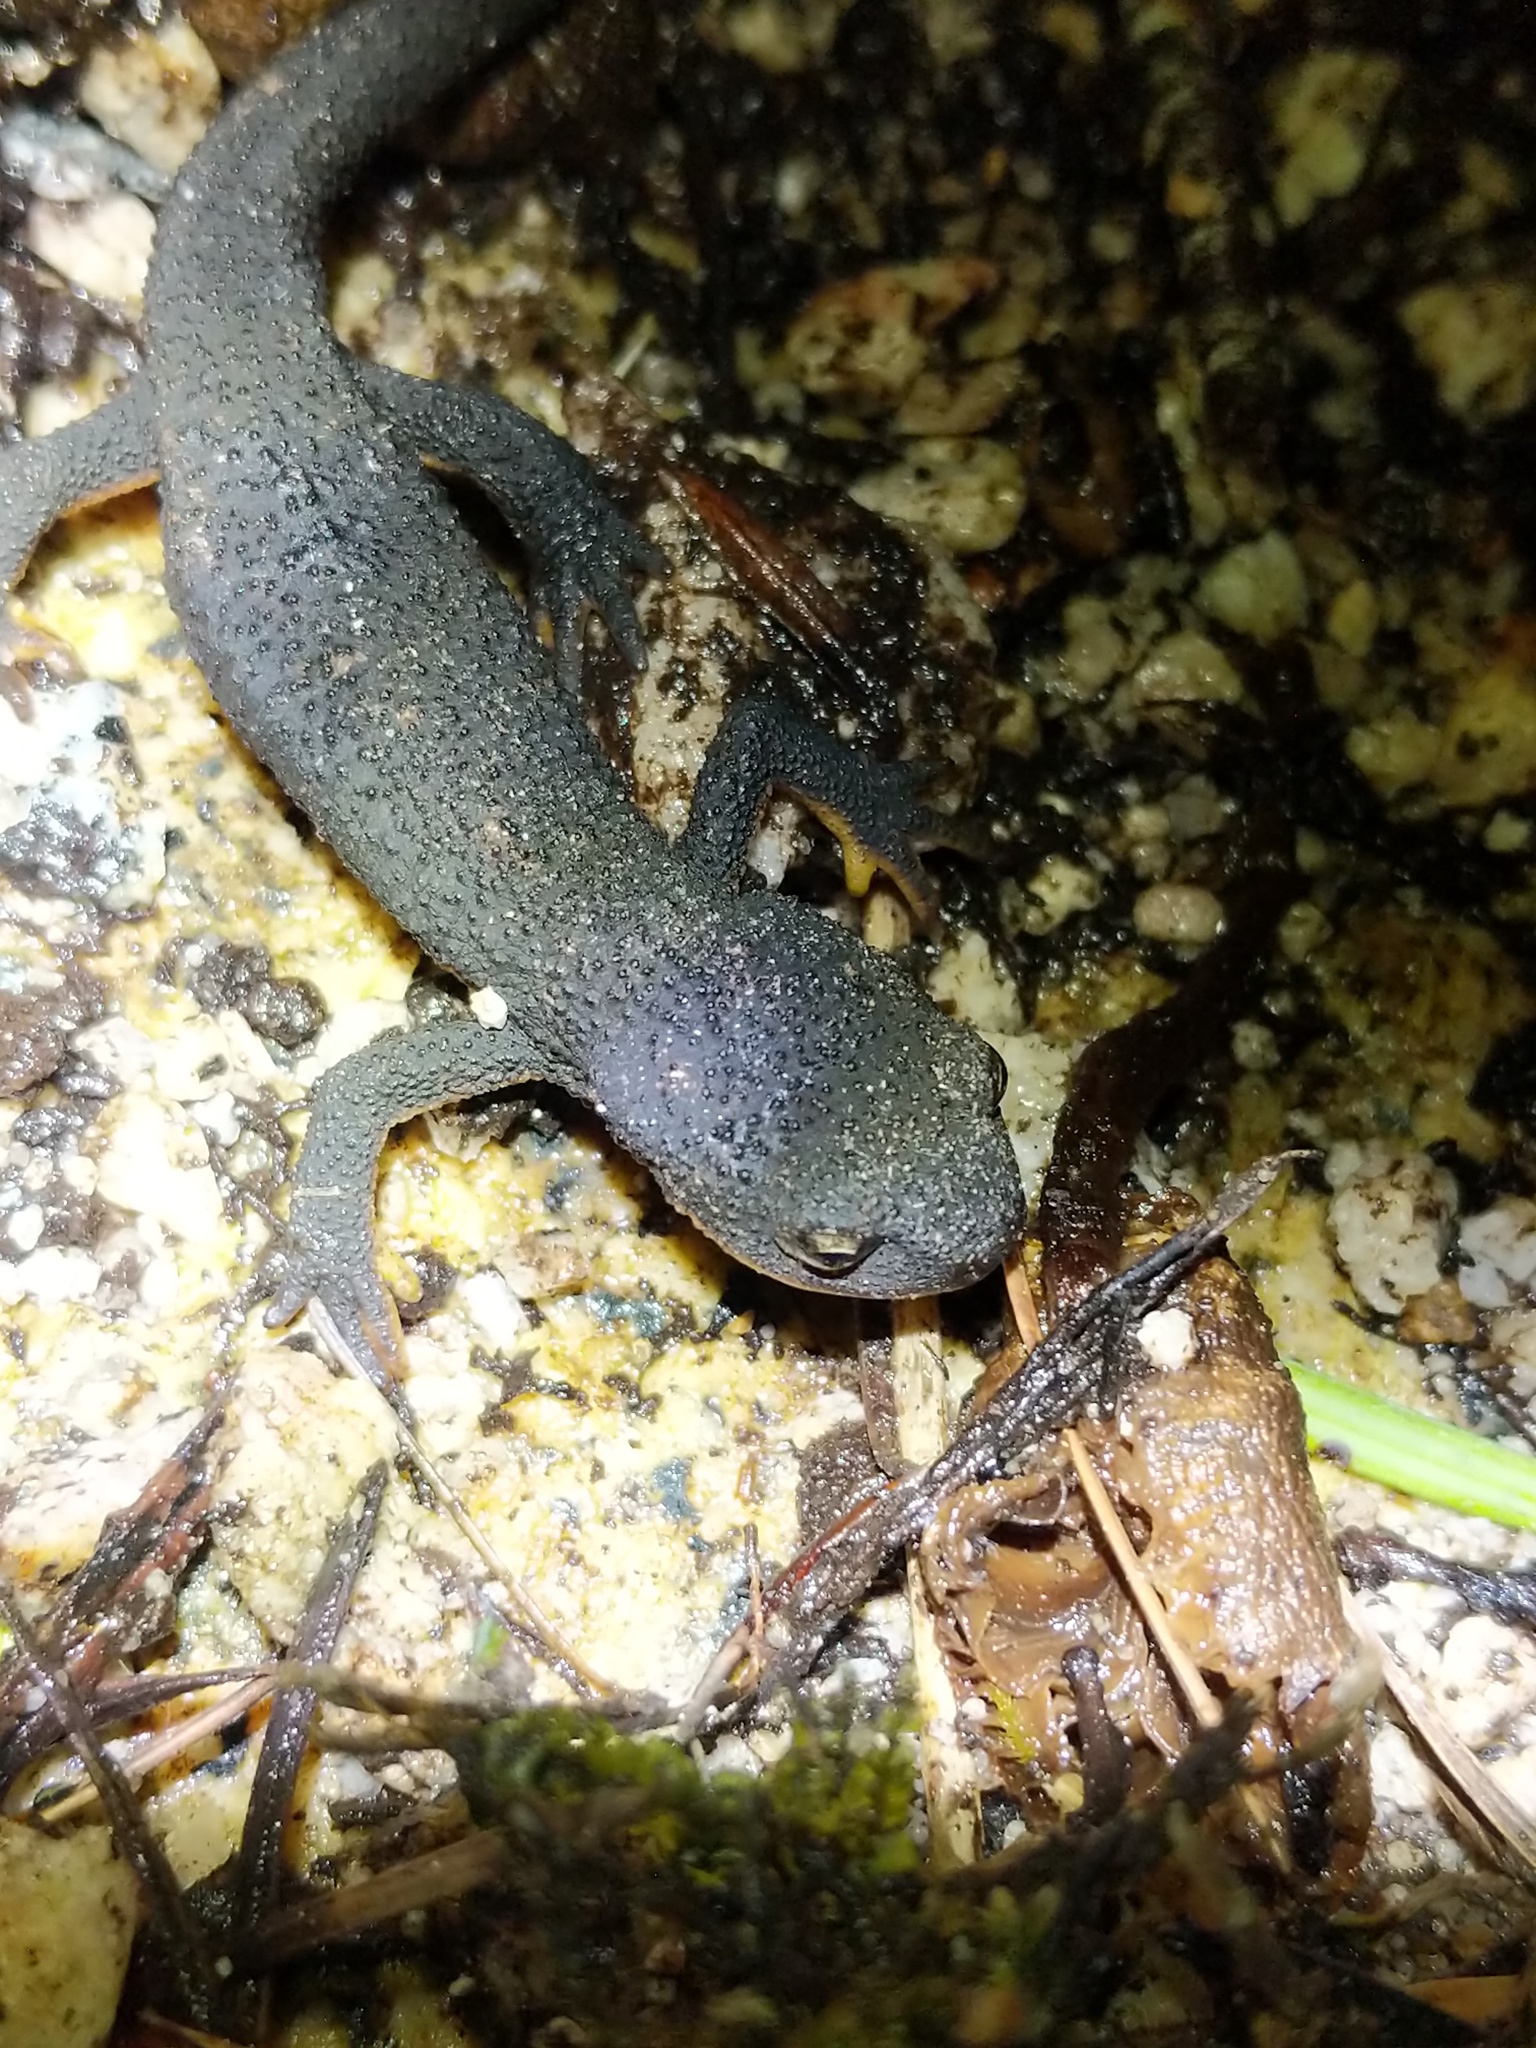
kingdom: Animalia
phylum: Chordata
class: Amphibia
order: Caudata
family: Salamandridae
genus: Taricha
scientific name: Taricha granulosa
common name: Roughskin newt
